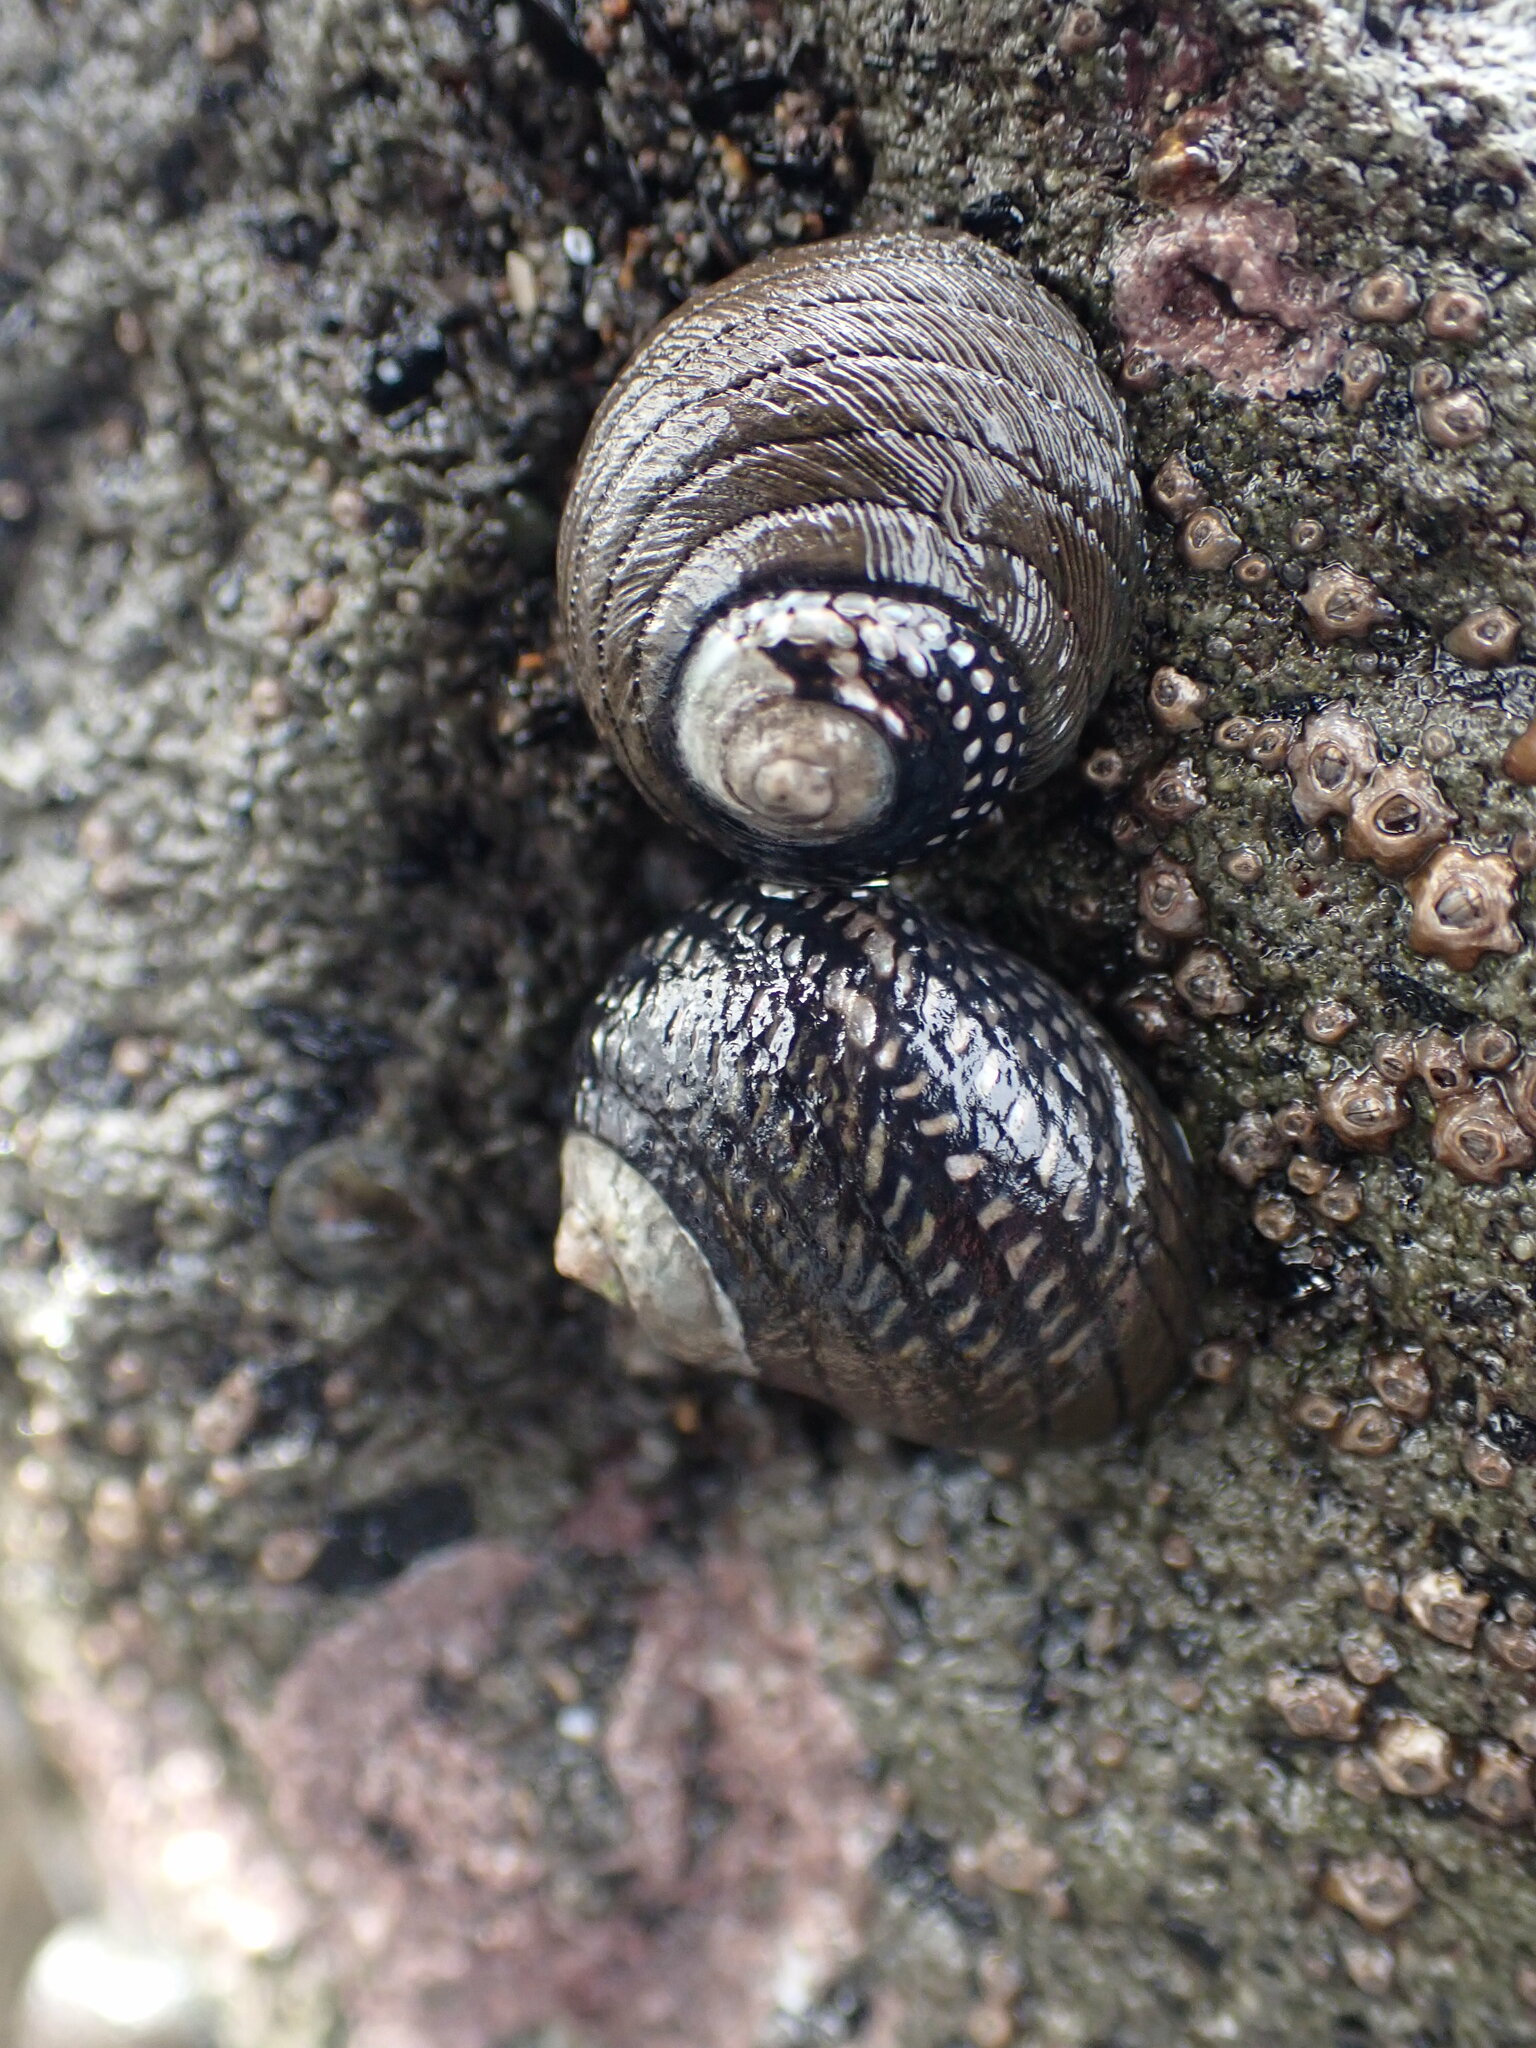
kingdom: Animalia
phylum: Mollusca
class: Gastropoda
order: Trochida
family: Trochidae
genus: Diloma
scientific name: Diloma aethiops
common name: Scorched monodont
